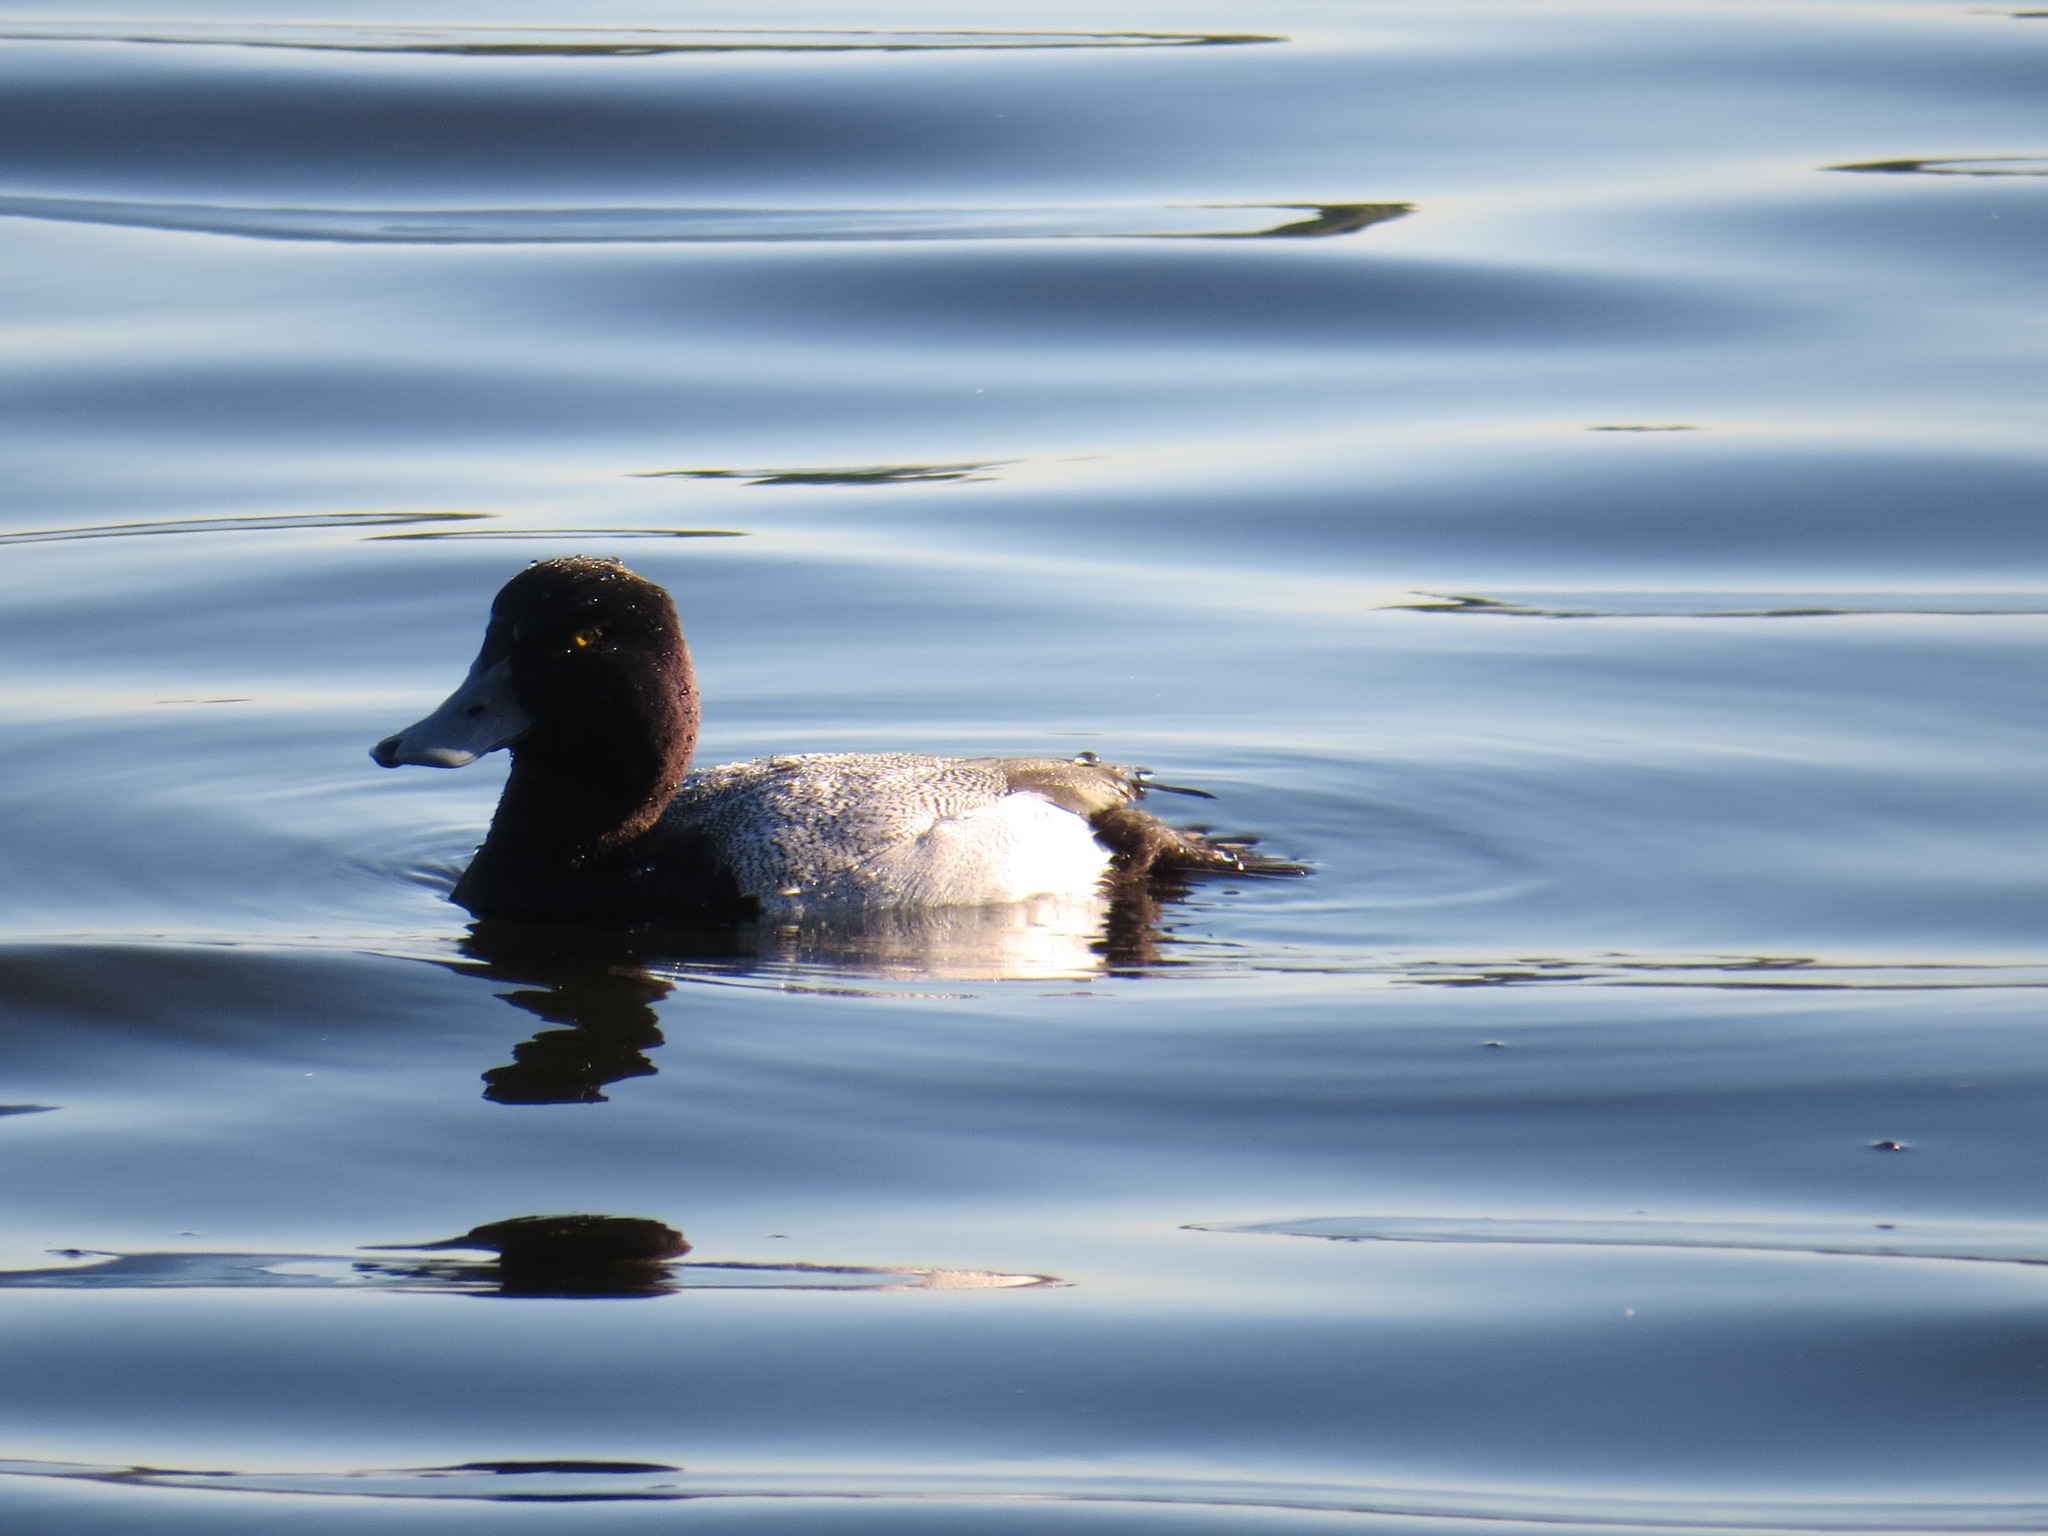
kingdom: Animalia
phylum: Chordata
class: Aves
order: Anseriformes
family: Anatidae
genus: Aythya
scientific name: Aythya affinis
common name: Lesser scaup
